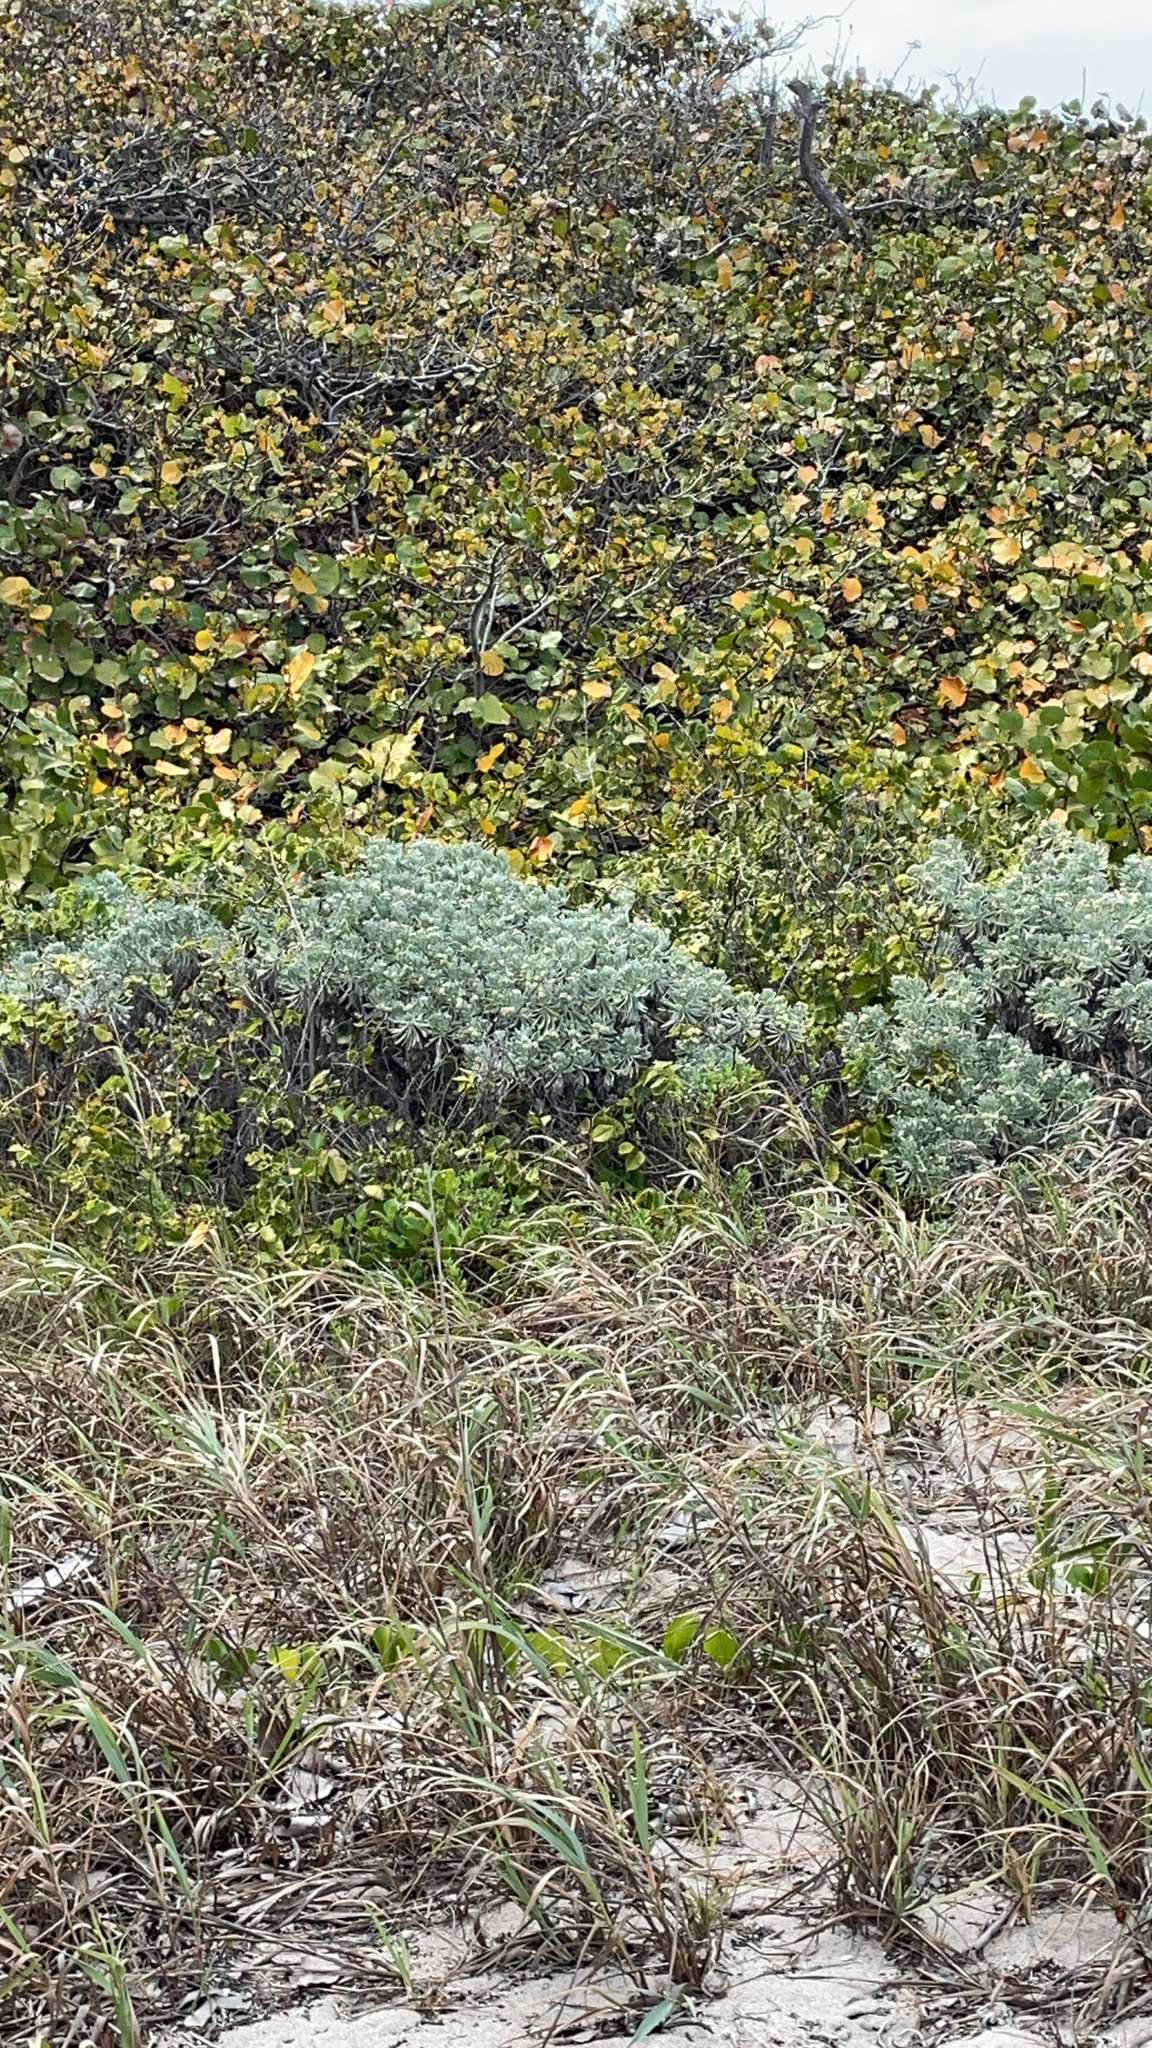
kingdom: Plantae
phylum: Tracheophyta
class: Magnoliopsida
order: Boraginales
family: Heliotropiaceae
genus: Tournefortia
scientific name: Tournefortia gnaphalodes
